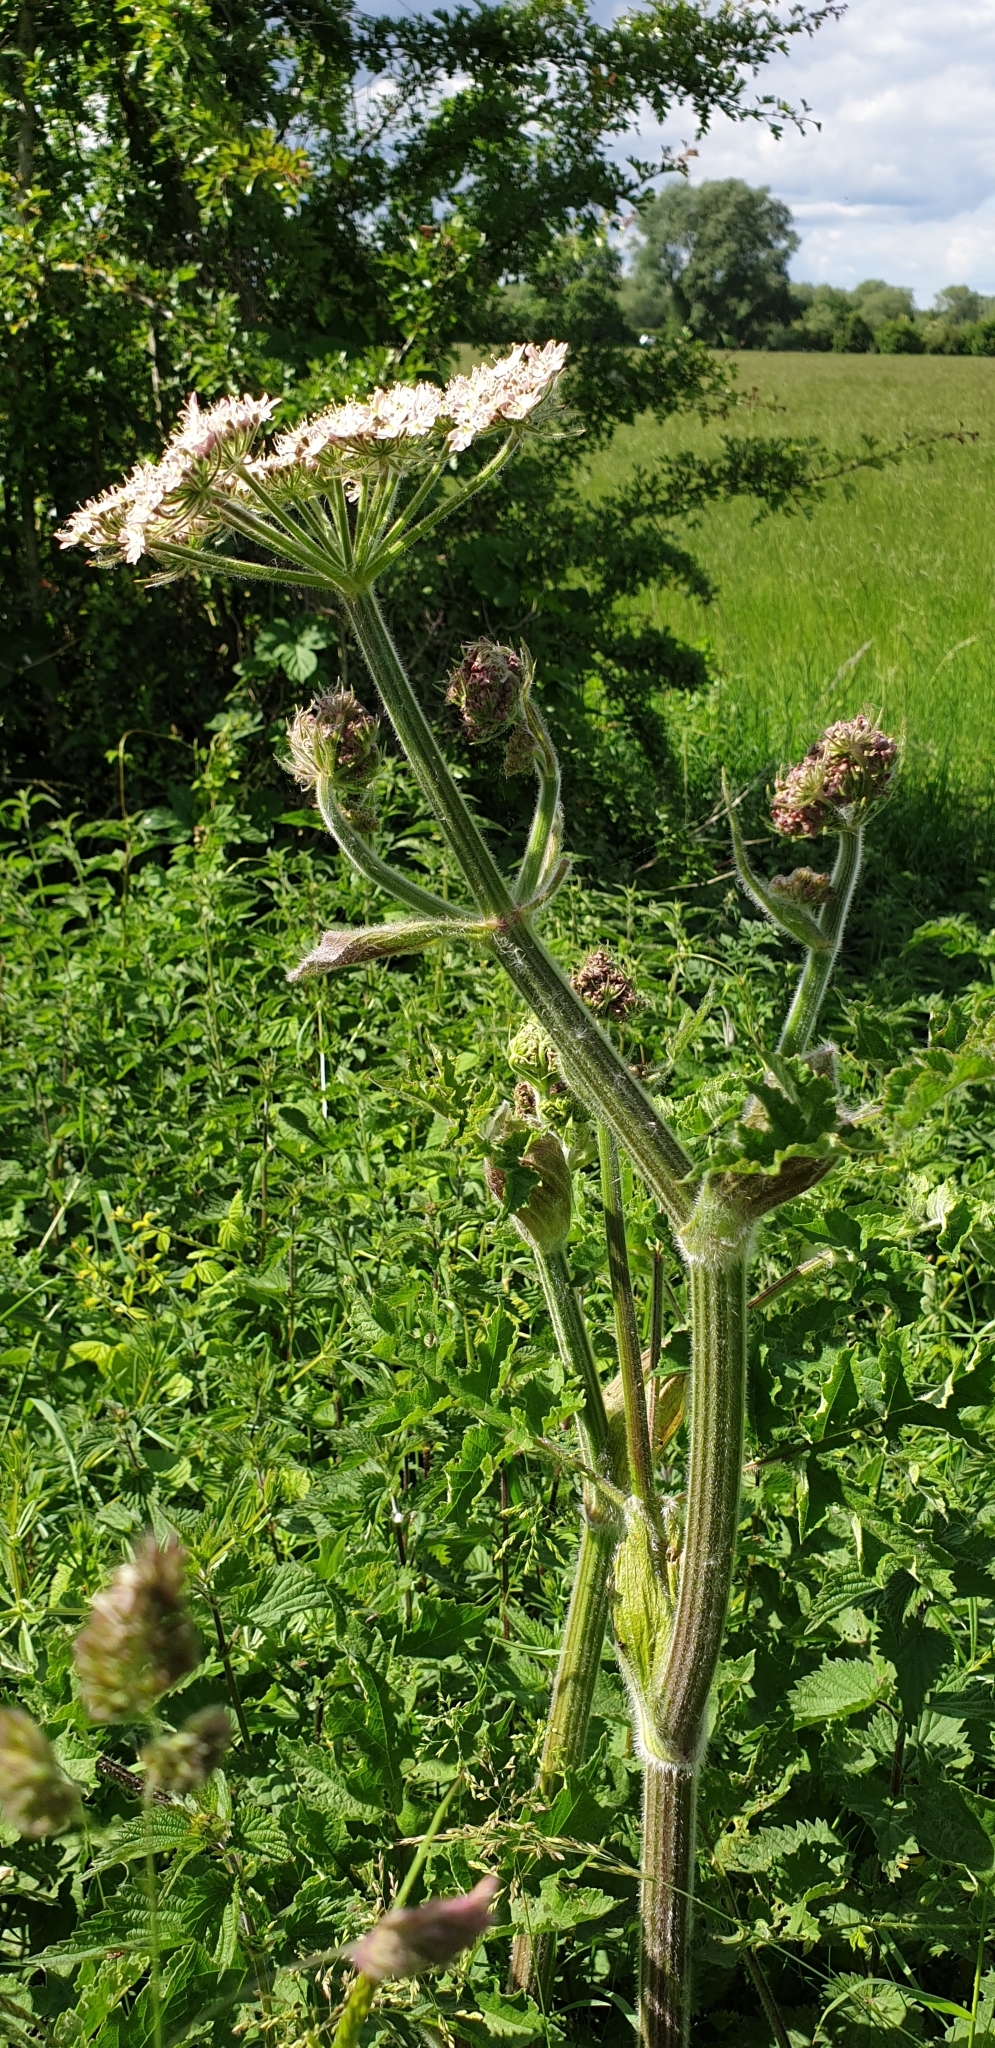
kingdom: Plantae
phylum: Tracheophyta
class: Magnoliopsida
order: Apiales
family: Apiaceae
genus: Heracleum
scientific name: Heracleum sphondylium
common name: Hogweed
